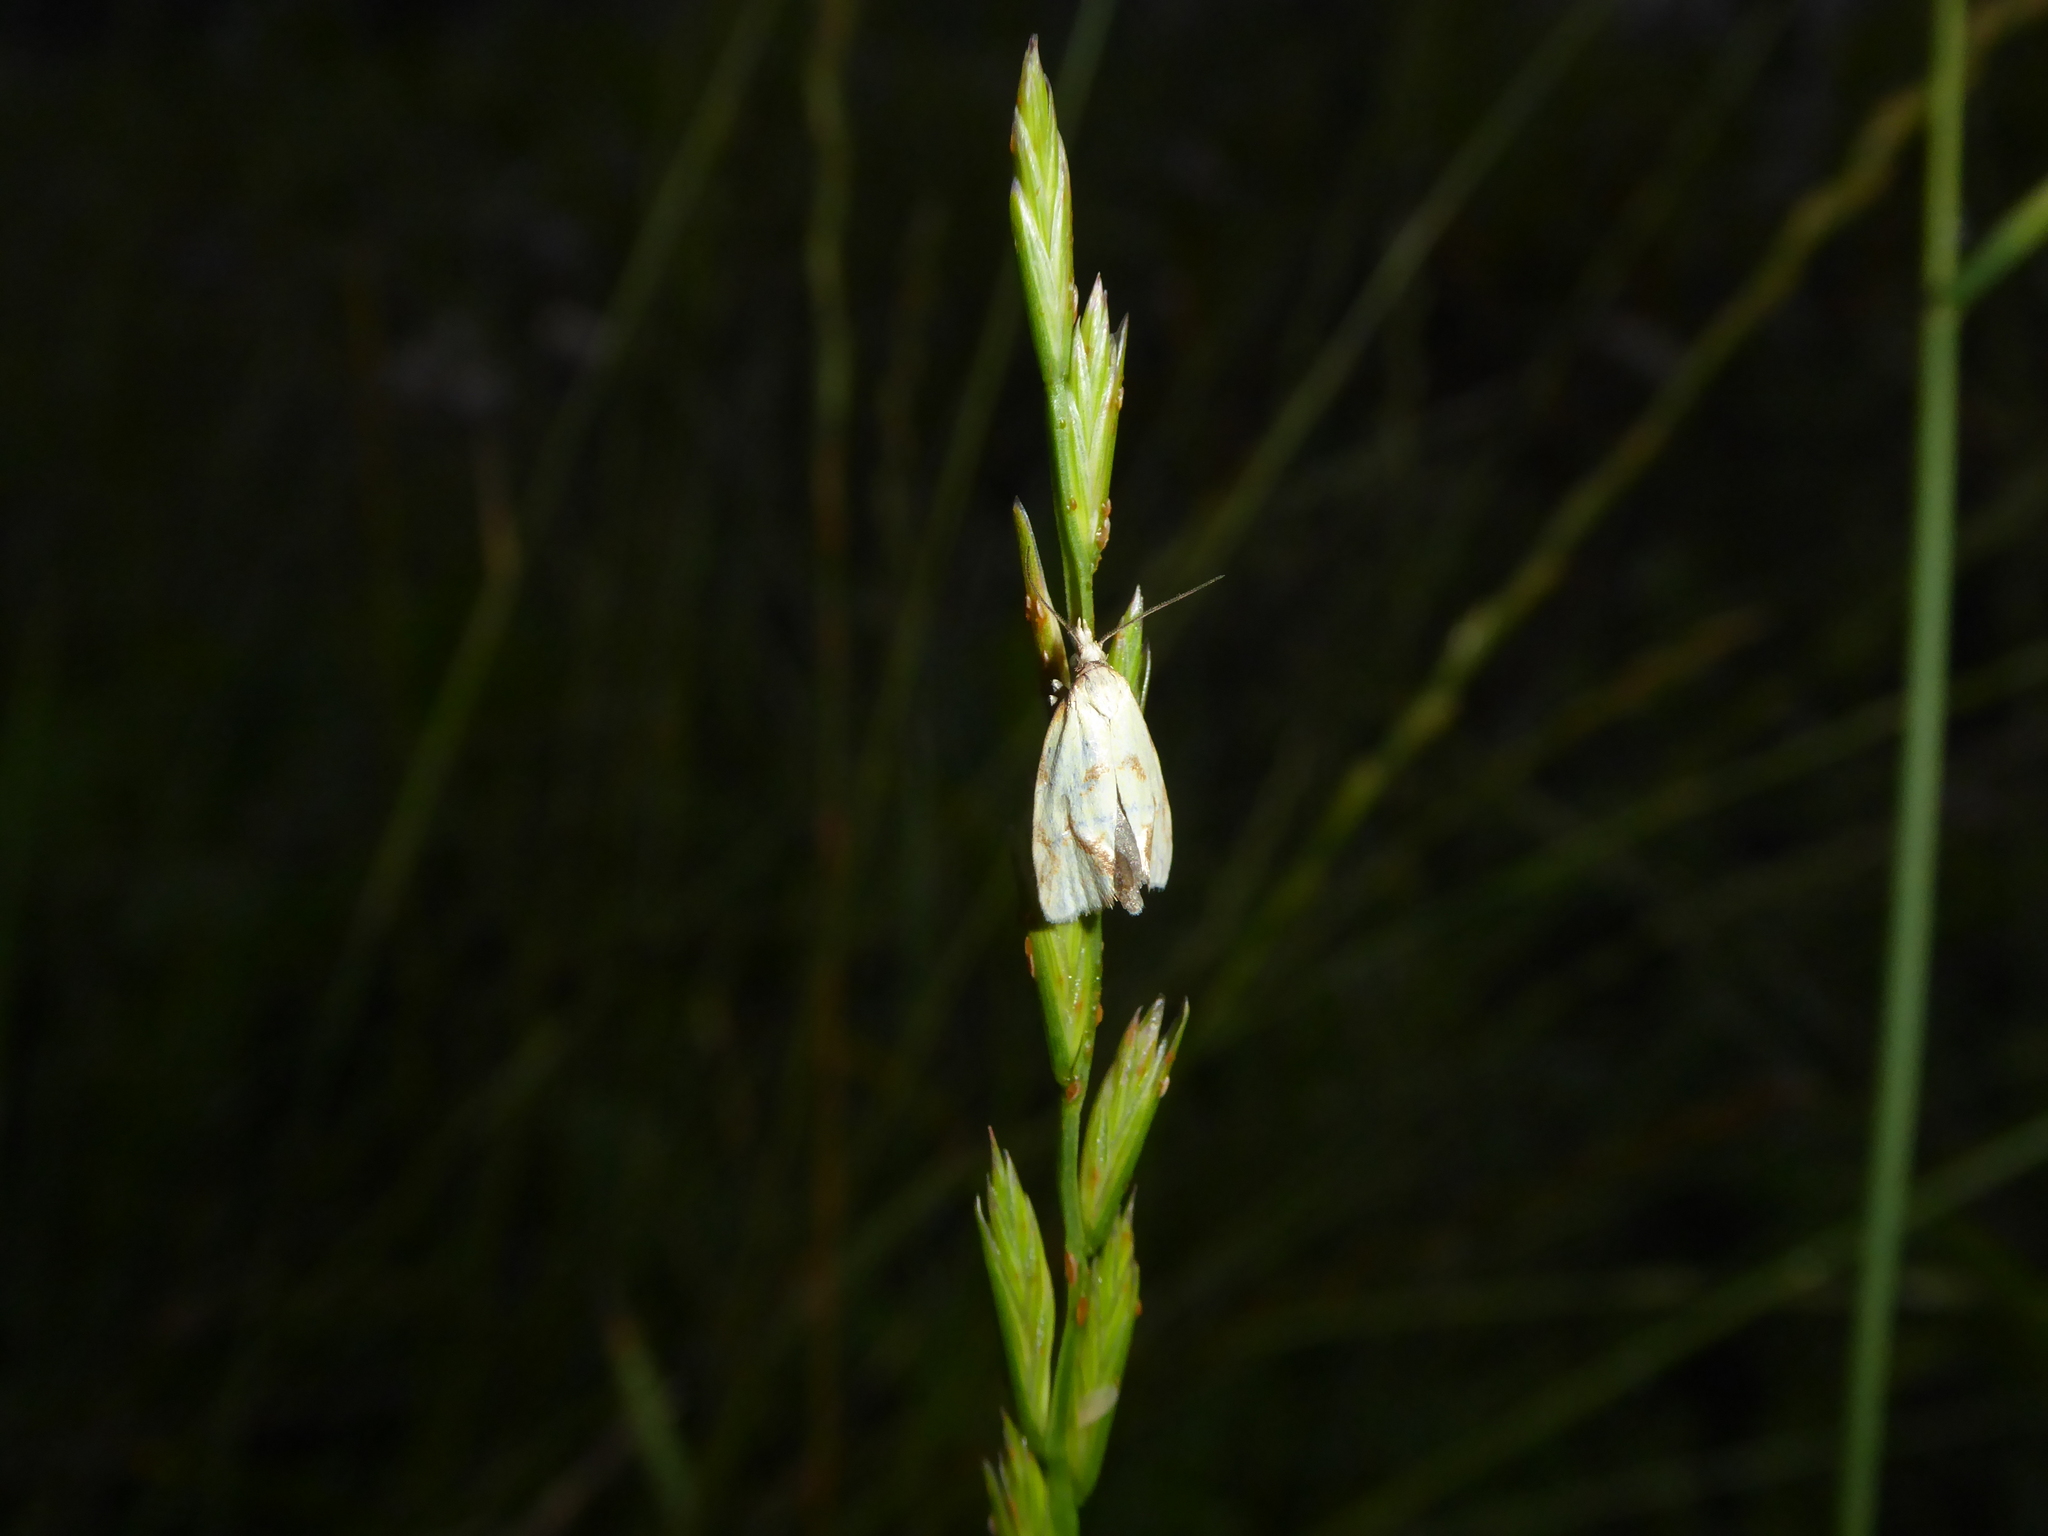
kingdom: Animalia
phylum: Arthropoda
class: Insecta
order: Lepidoptera
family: Tortricidae
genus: Agapeta
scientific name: Agapeta hamana
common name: Common yellow conch
